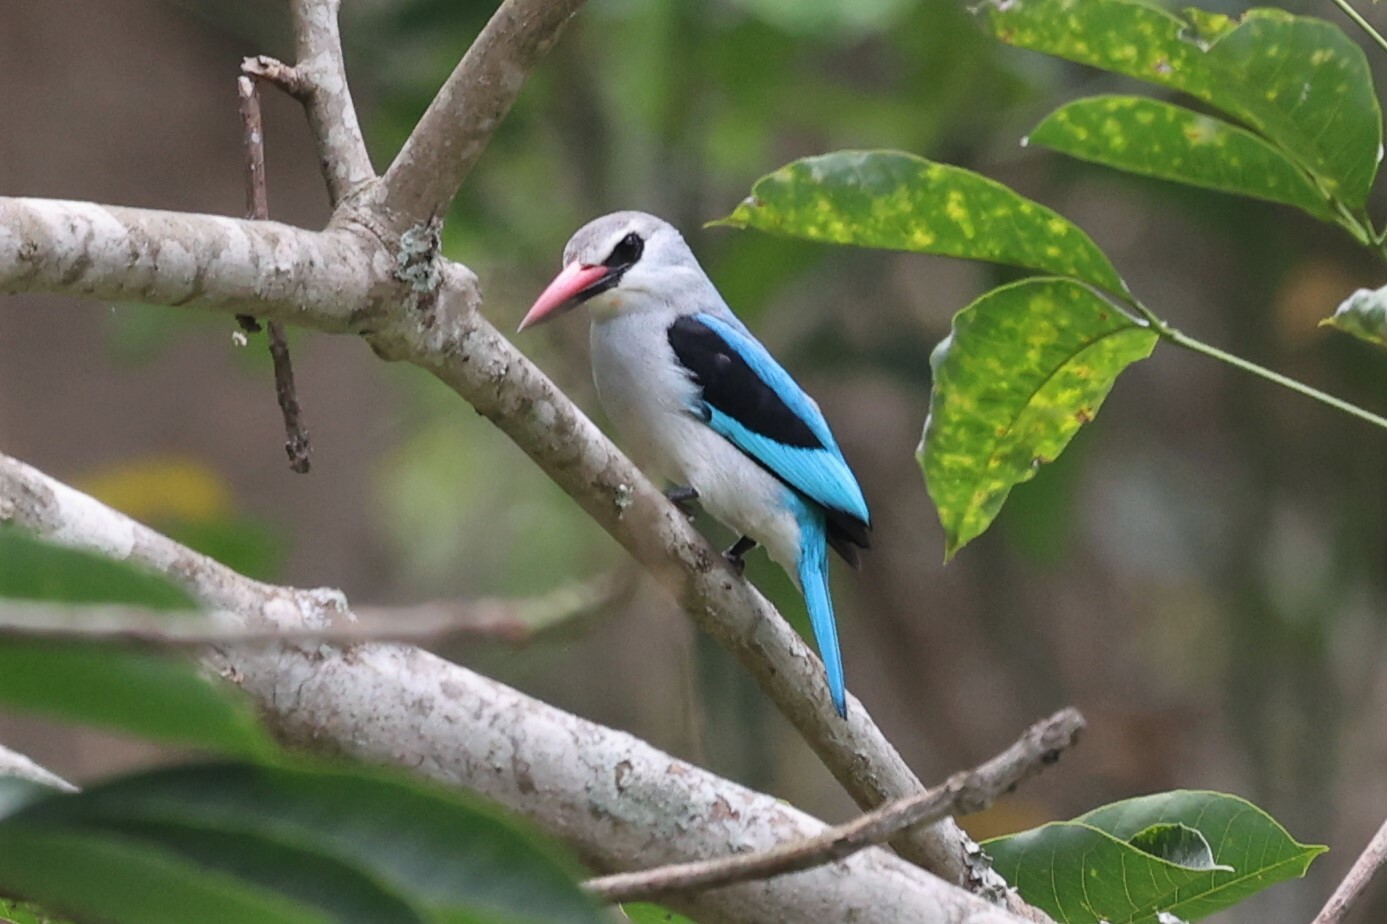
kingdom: Animalia
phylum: Chordata
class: Aves
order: Coraciiformes
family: Alcedinidae
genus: Halcyon
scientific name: Halcyon senegalensis
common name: Woodland kingfisher
